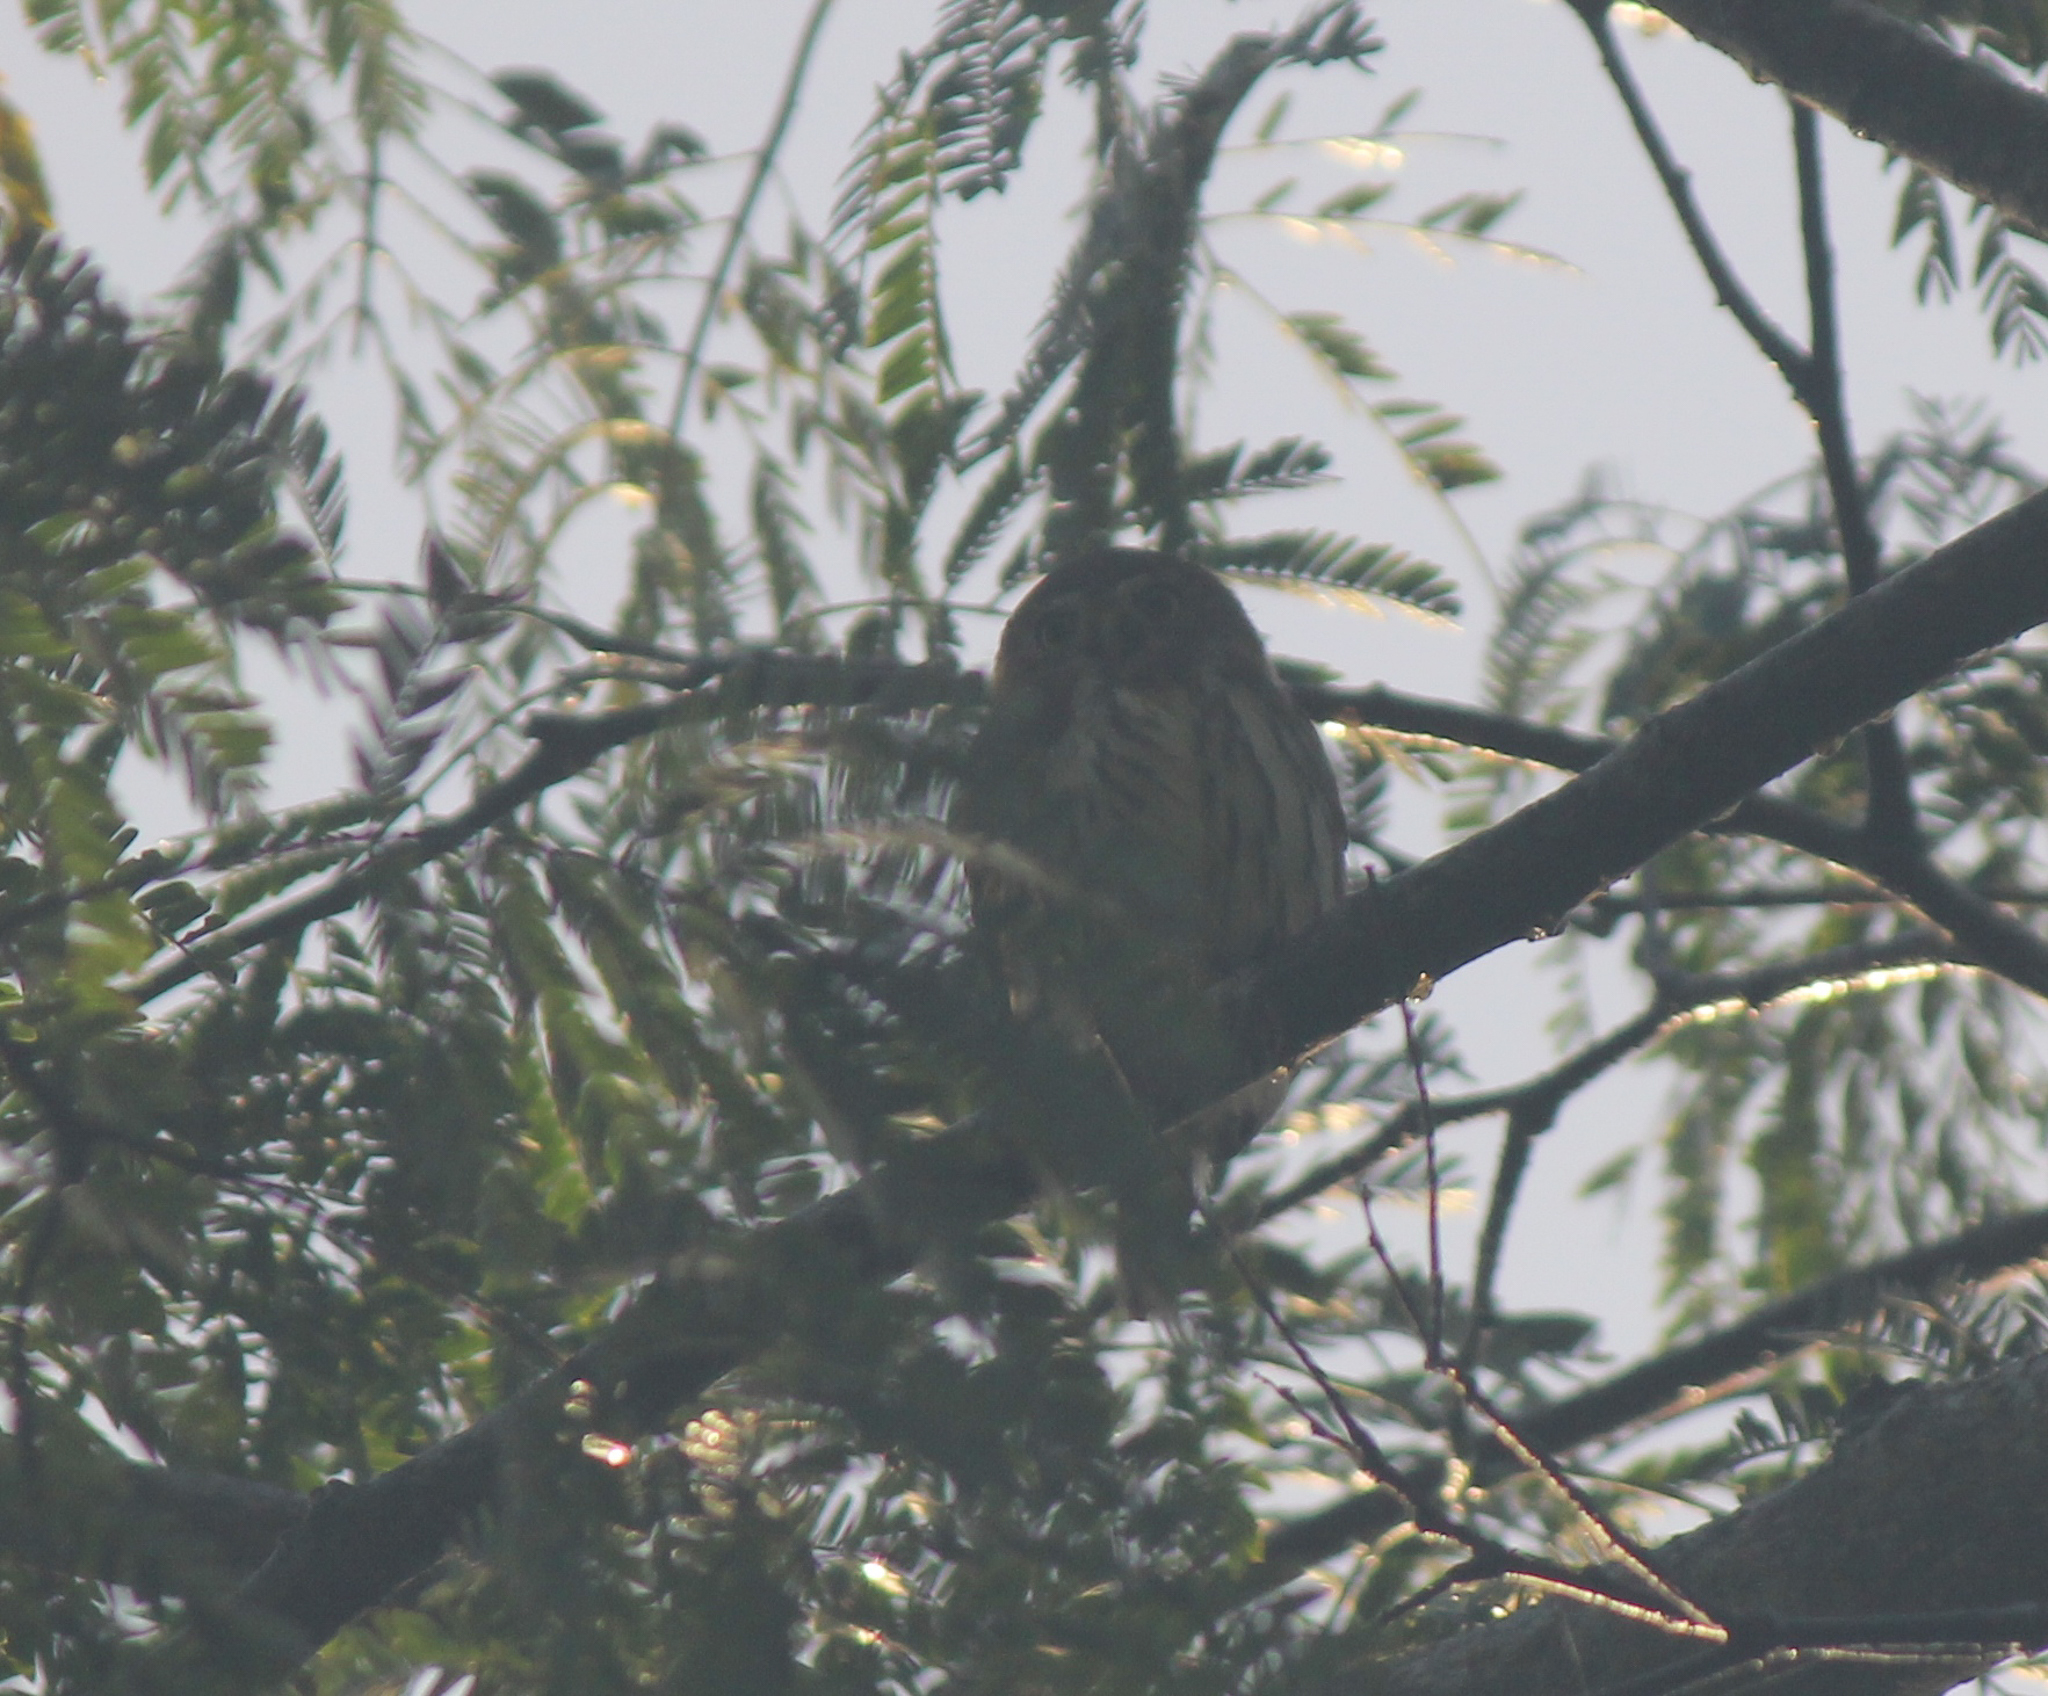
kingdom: Animalia
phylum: Chordata
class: Aves
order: Strigiformes
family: Strigidae
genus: Glaucidium
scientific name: Glaucidium brasilianum
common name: Ferruginous pygmy-owl
